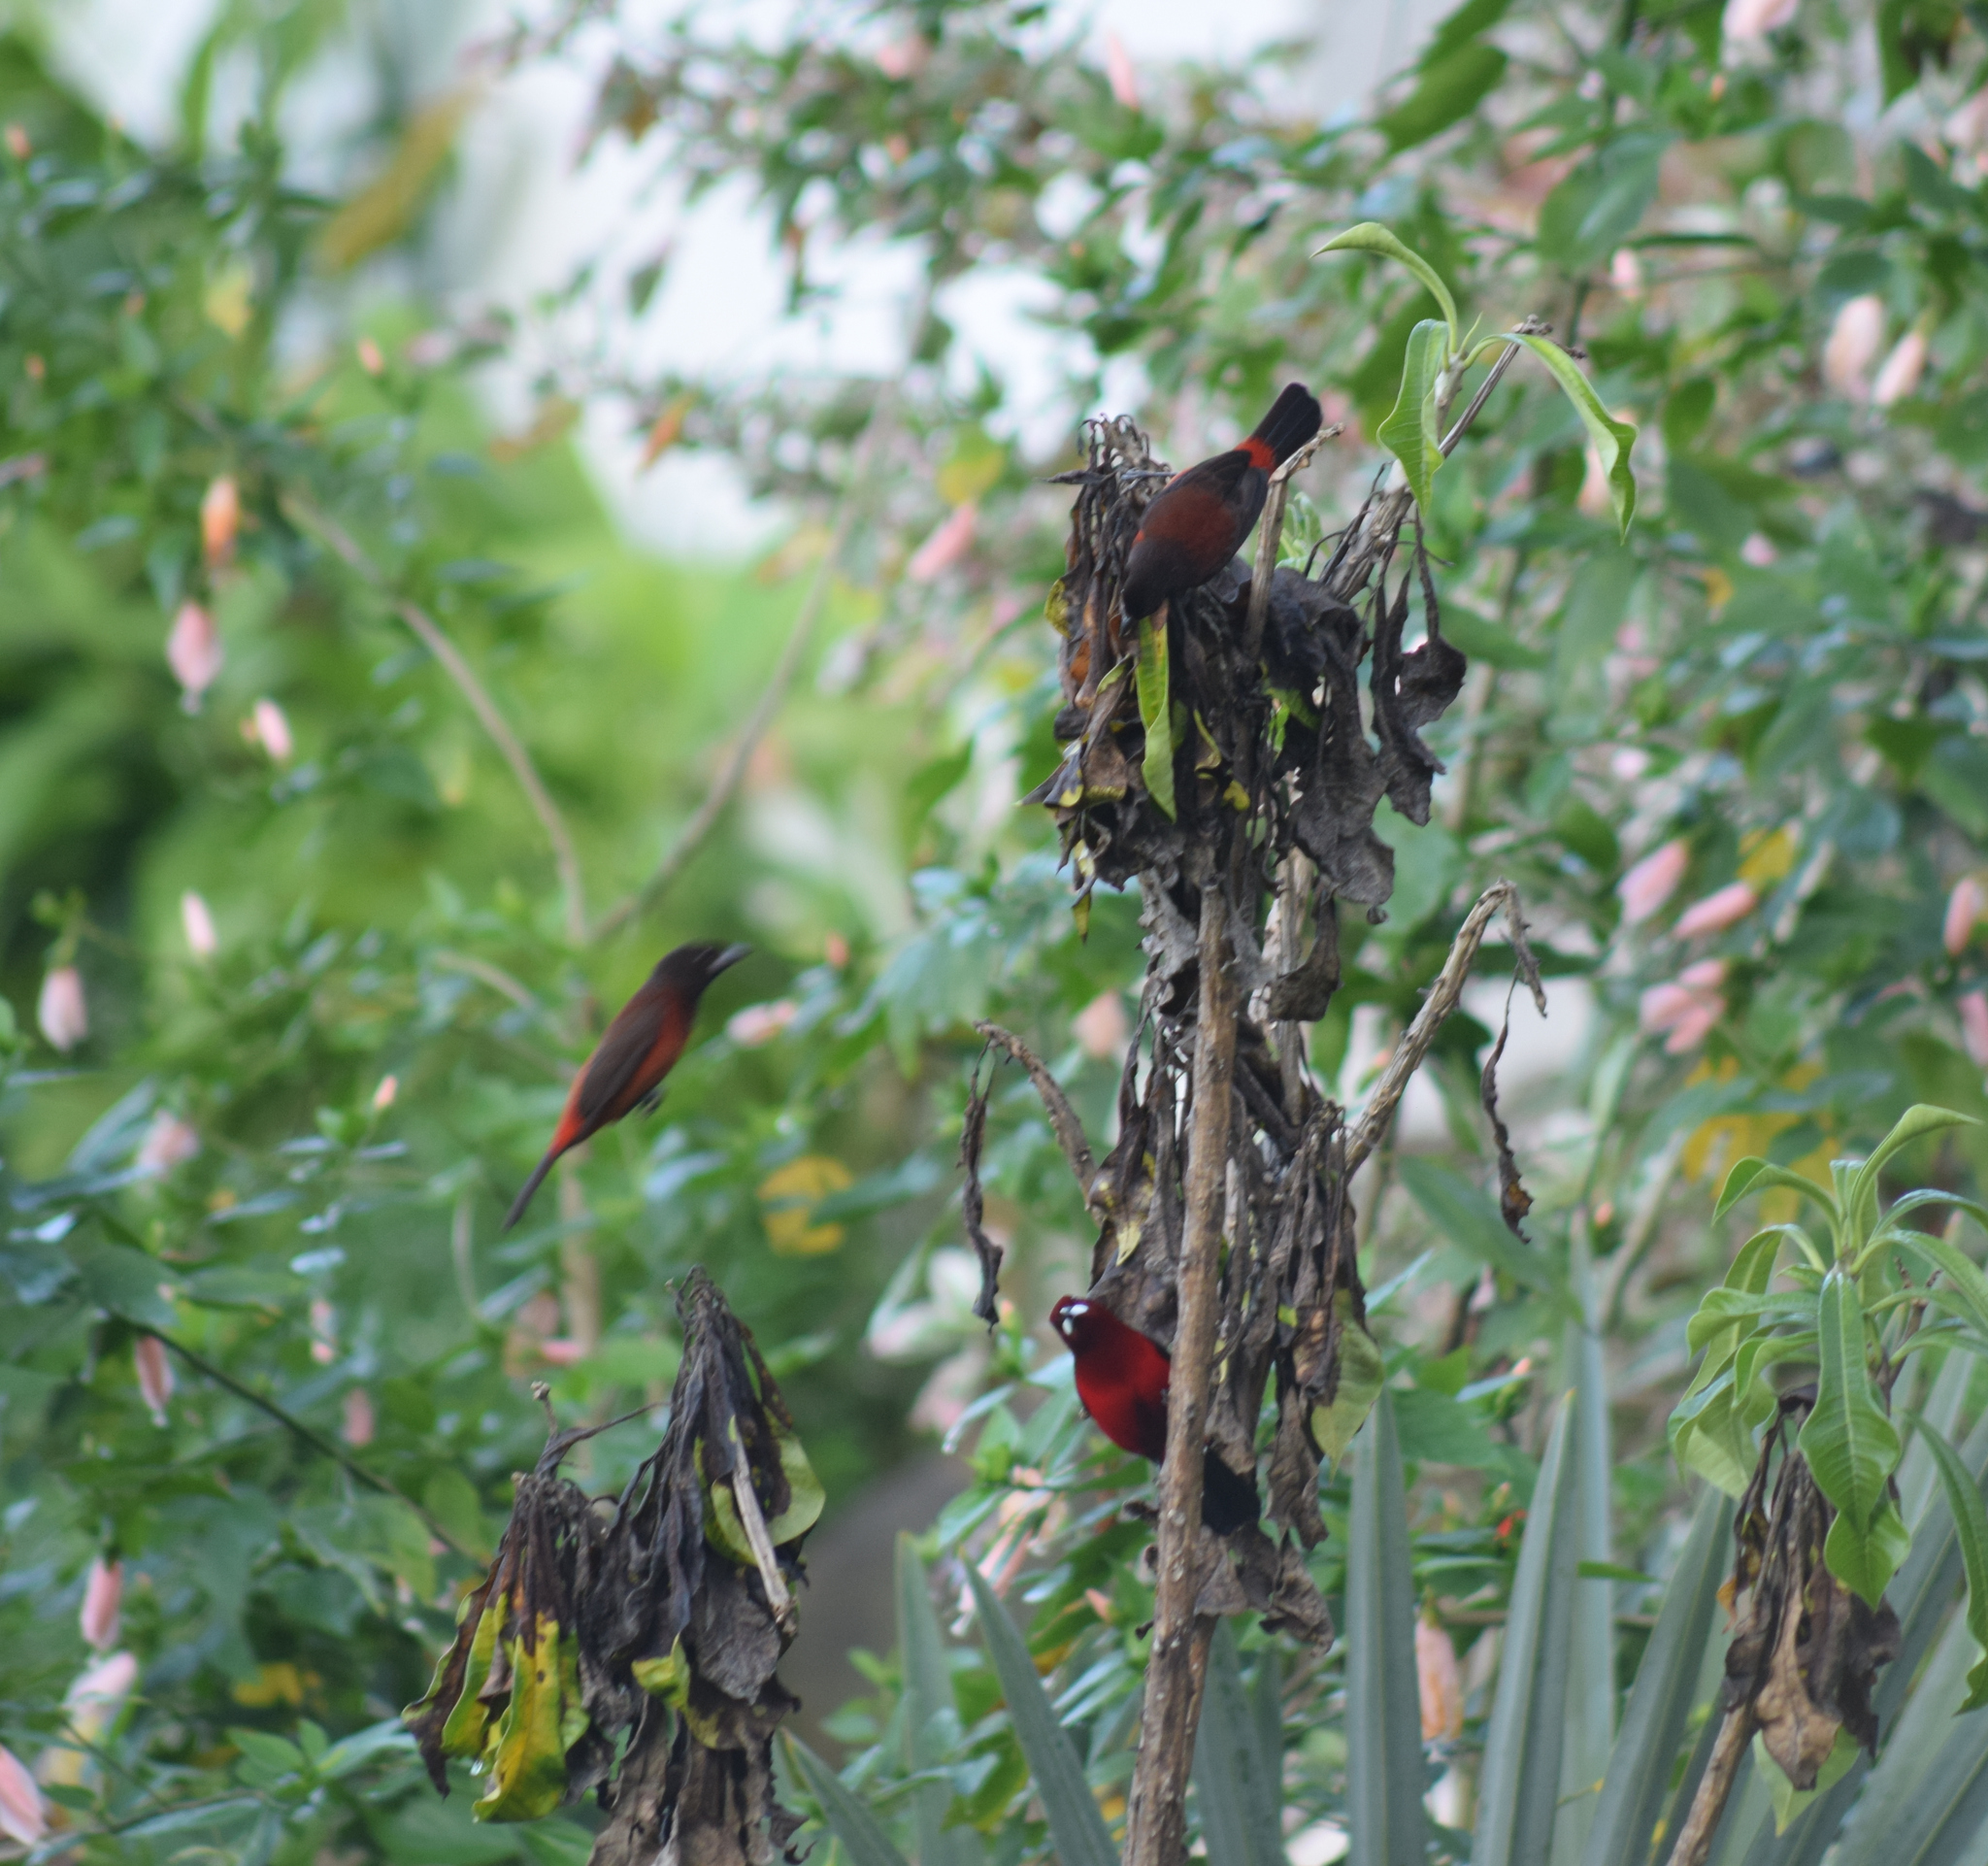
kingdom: Animalia
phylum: Chordata
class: Aves
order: Passeriformes
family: Thraupidae
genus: Ramphocelus
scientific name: Ramphocelus dimidiatus
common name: Crimson-backed tanager
